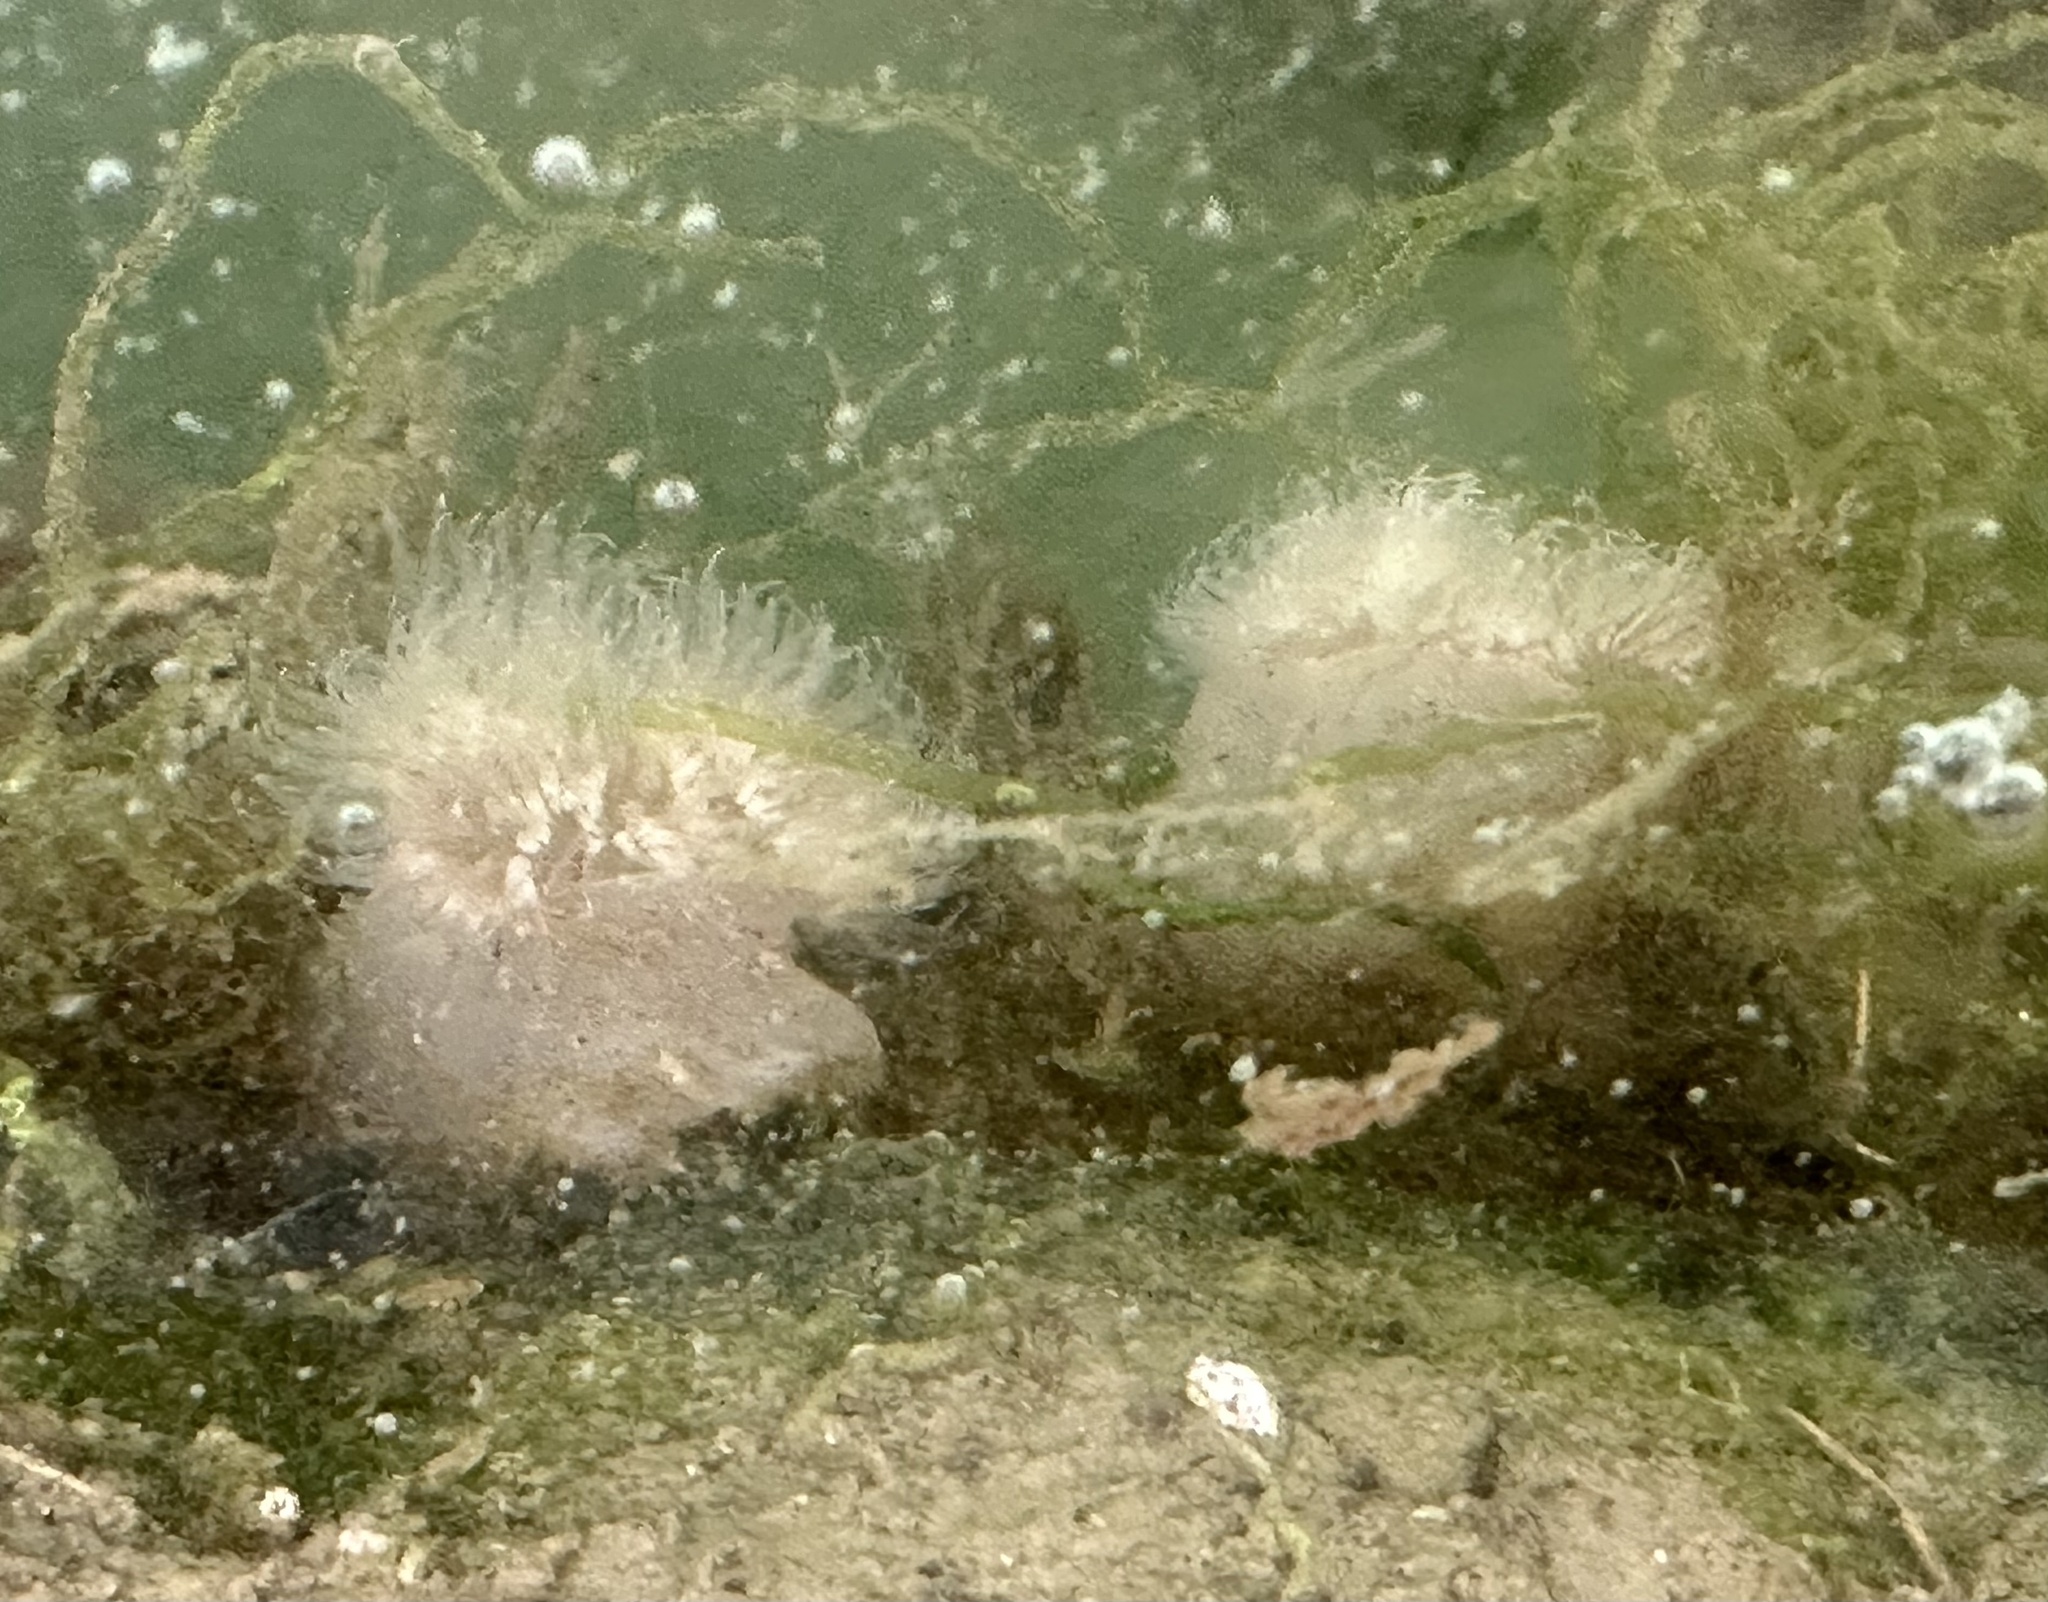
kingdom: Animalia
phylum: Cnidaria
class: Anthozoa
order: Actiniaria
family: Metridiidae
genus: Metridium
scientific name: Metridium senile
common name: Clonal plumose anemone
